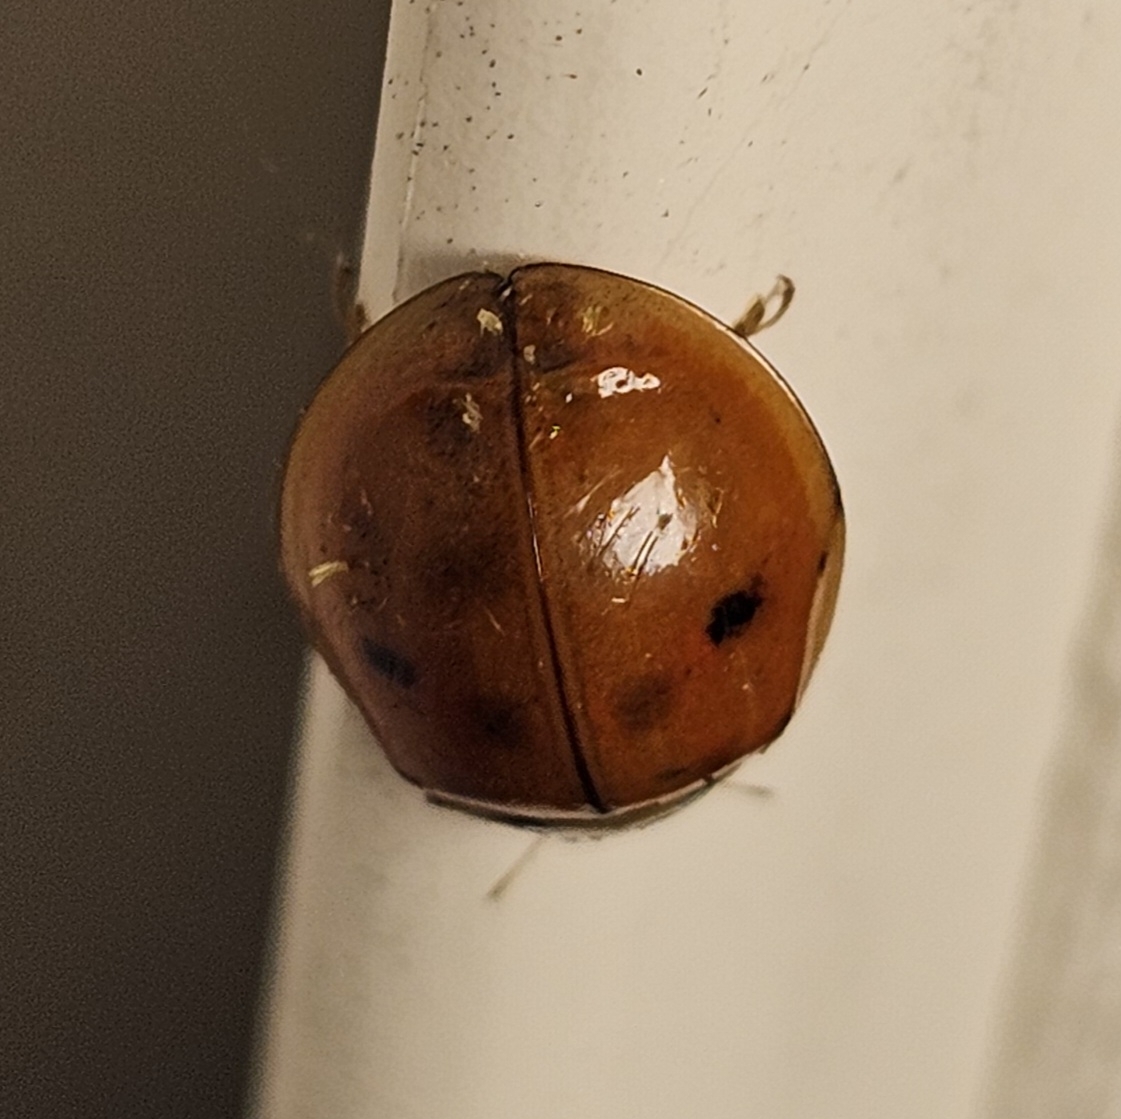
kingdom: Animalia
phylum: Arthropoda
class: Insecta
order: Coleoptera
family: Coccinellidae
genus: Harmonia
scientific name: Harmonia axyridis
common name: Harlequin ladybird
